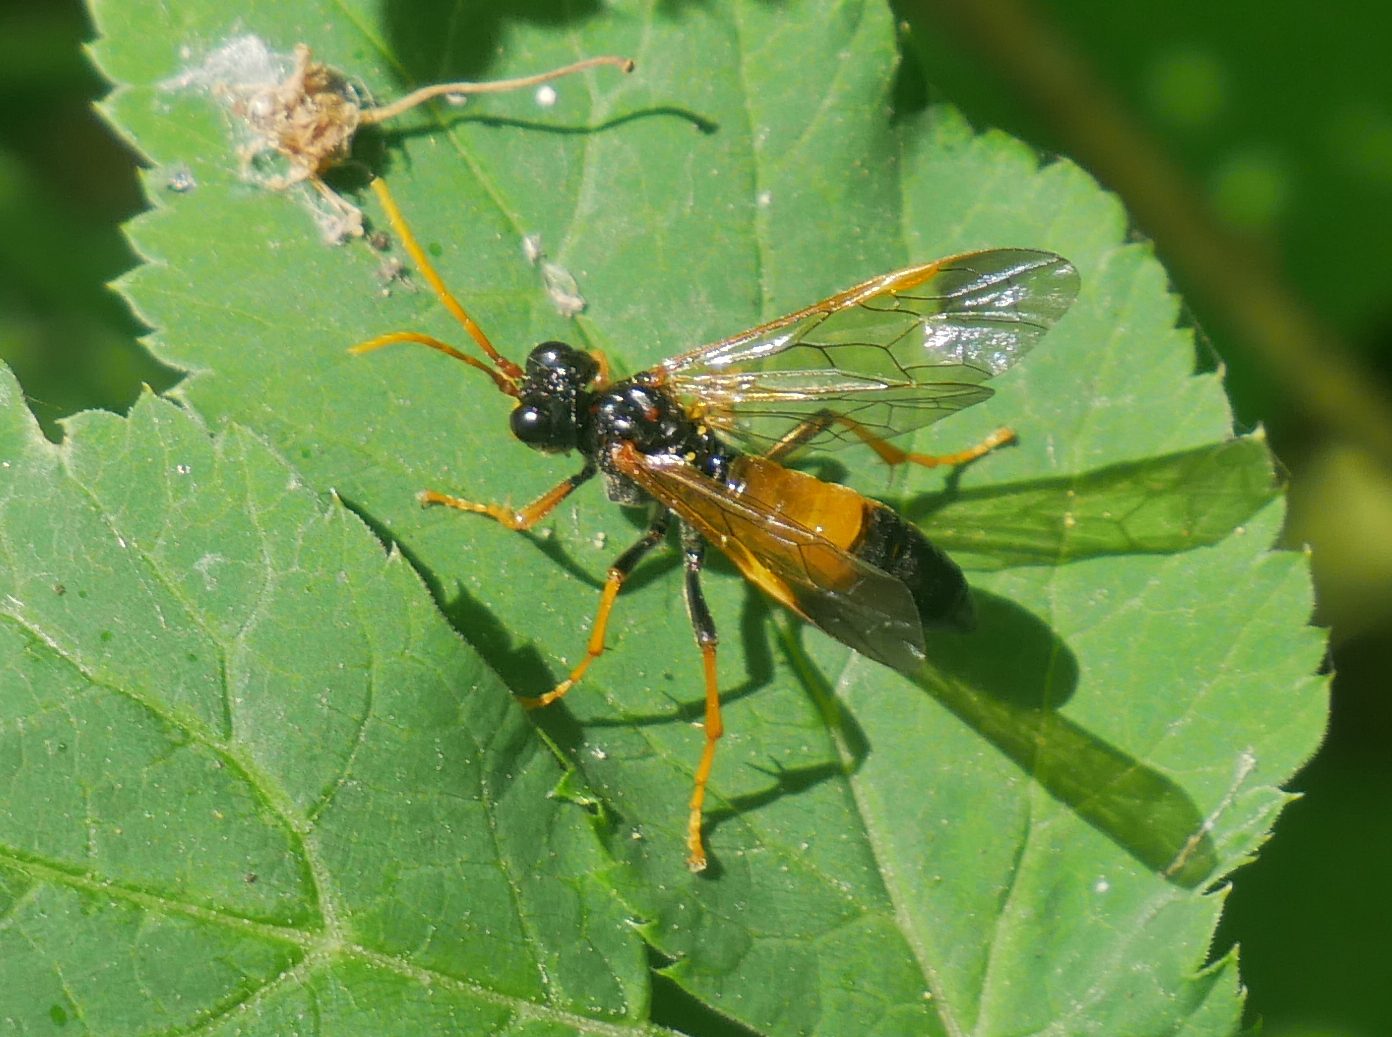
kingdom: Animalia
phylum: Arthropoda
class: Insecta
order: Hymenoptera
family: Tenthredinidae
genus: Tenthredo
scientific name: Tenthredo campestris
